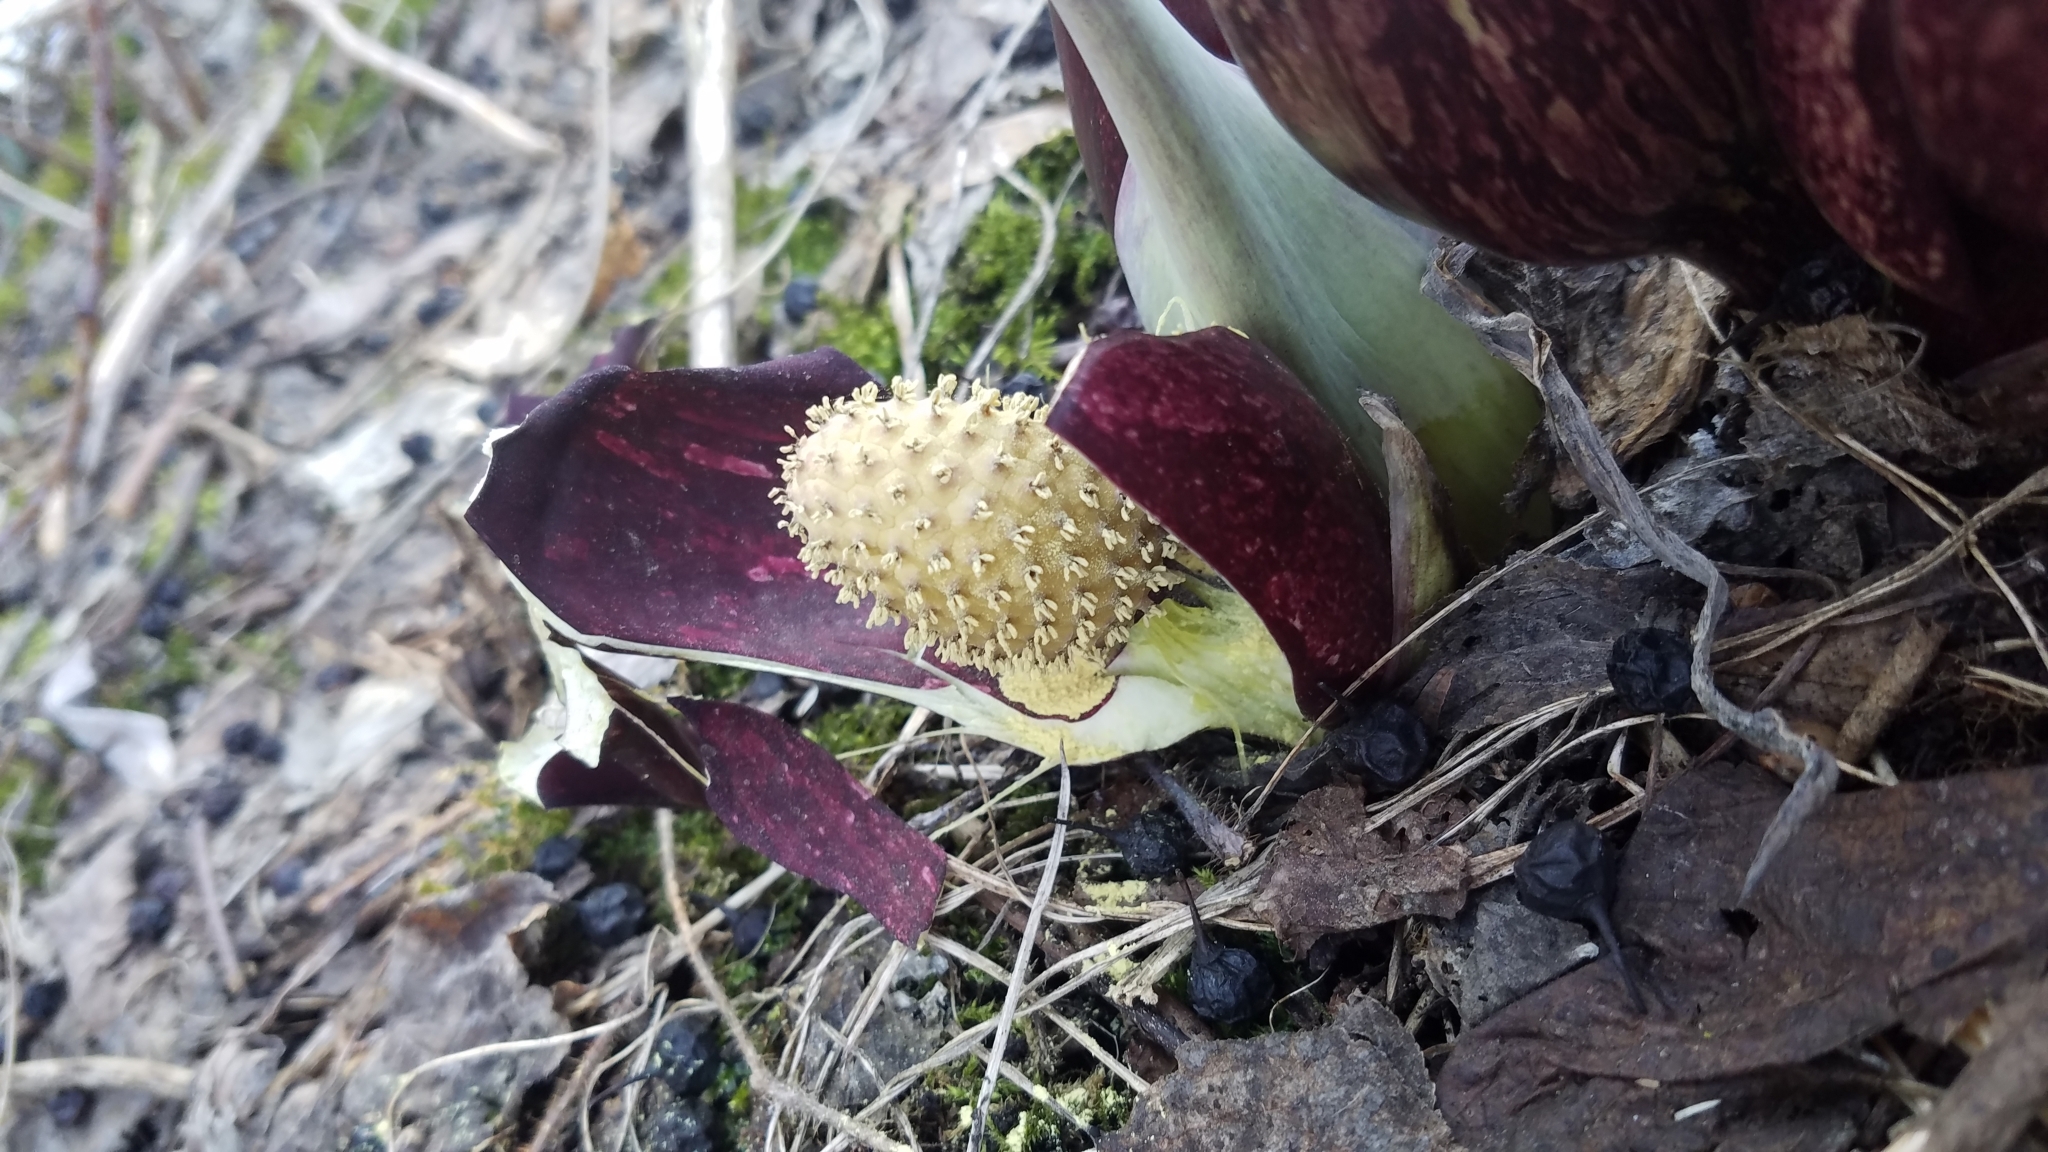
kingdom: Plantae
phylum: Tracheophyta
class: Liliopsida
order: Alismatales
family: Araceae
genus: Symplocarpus
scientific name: Symplocarpus foetidus
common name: Eastern skunk cabbage
